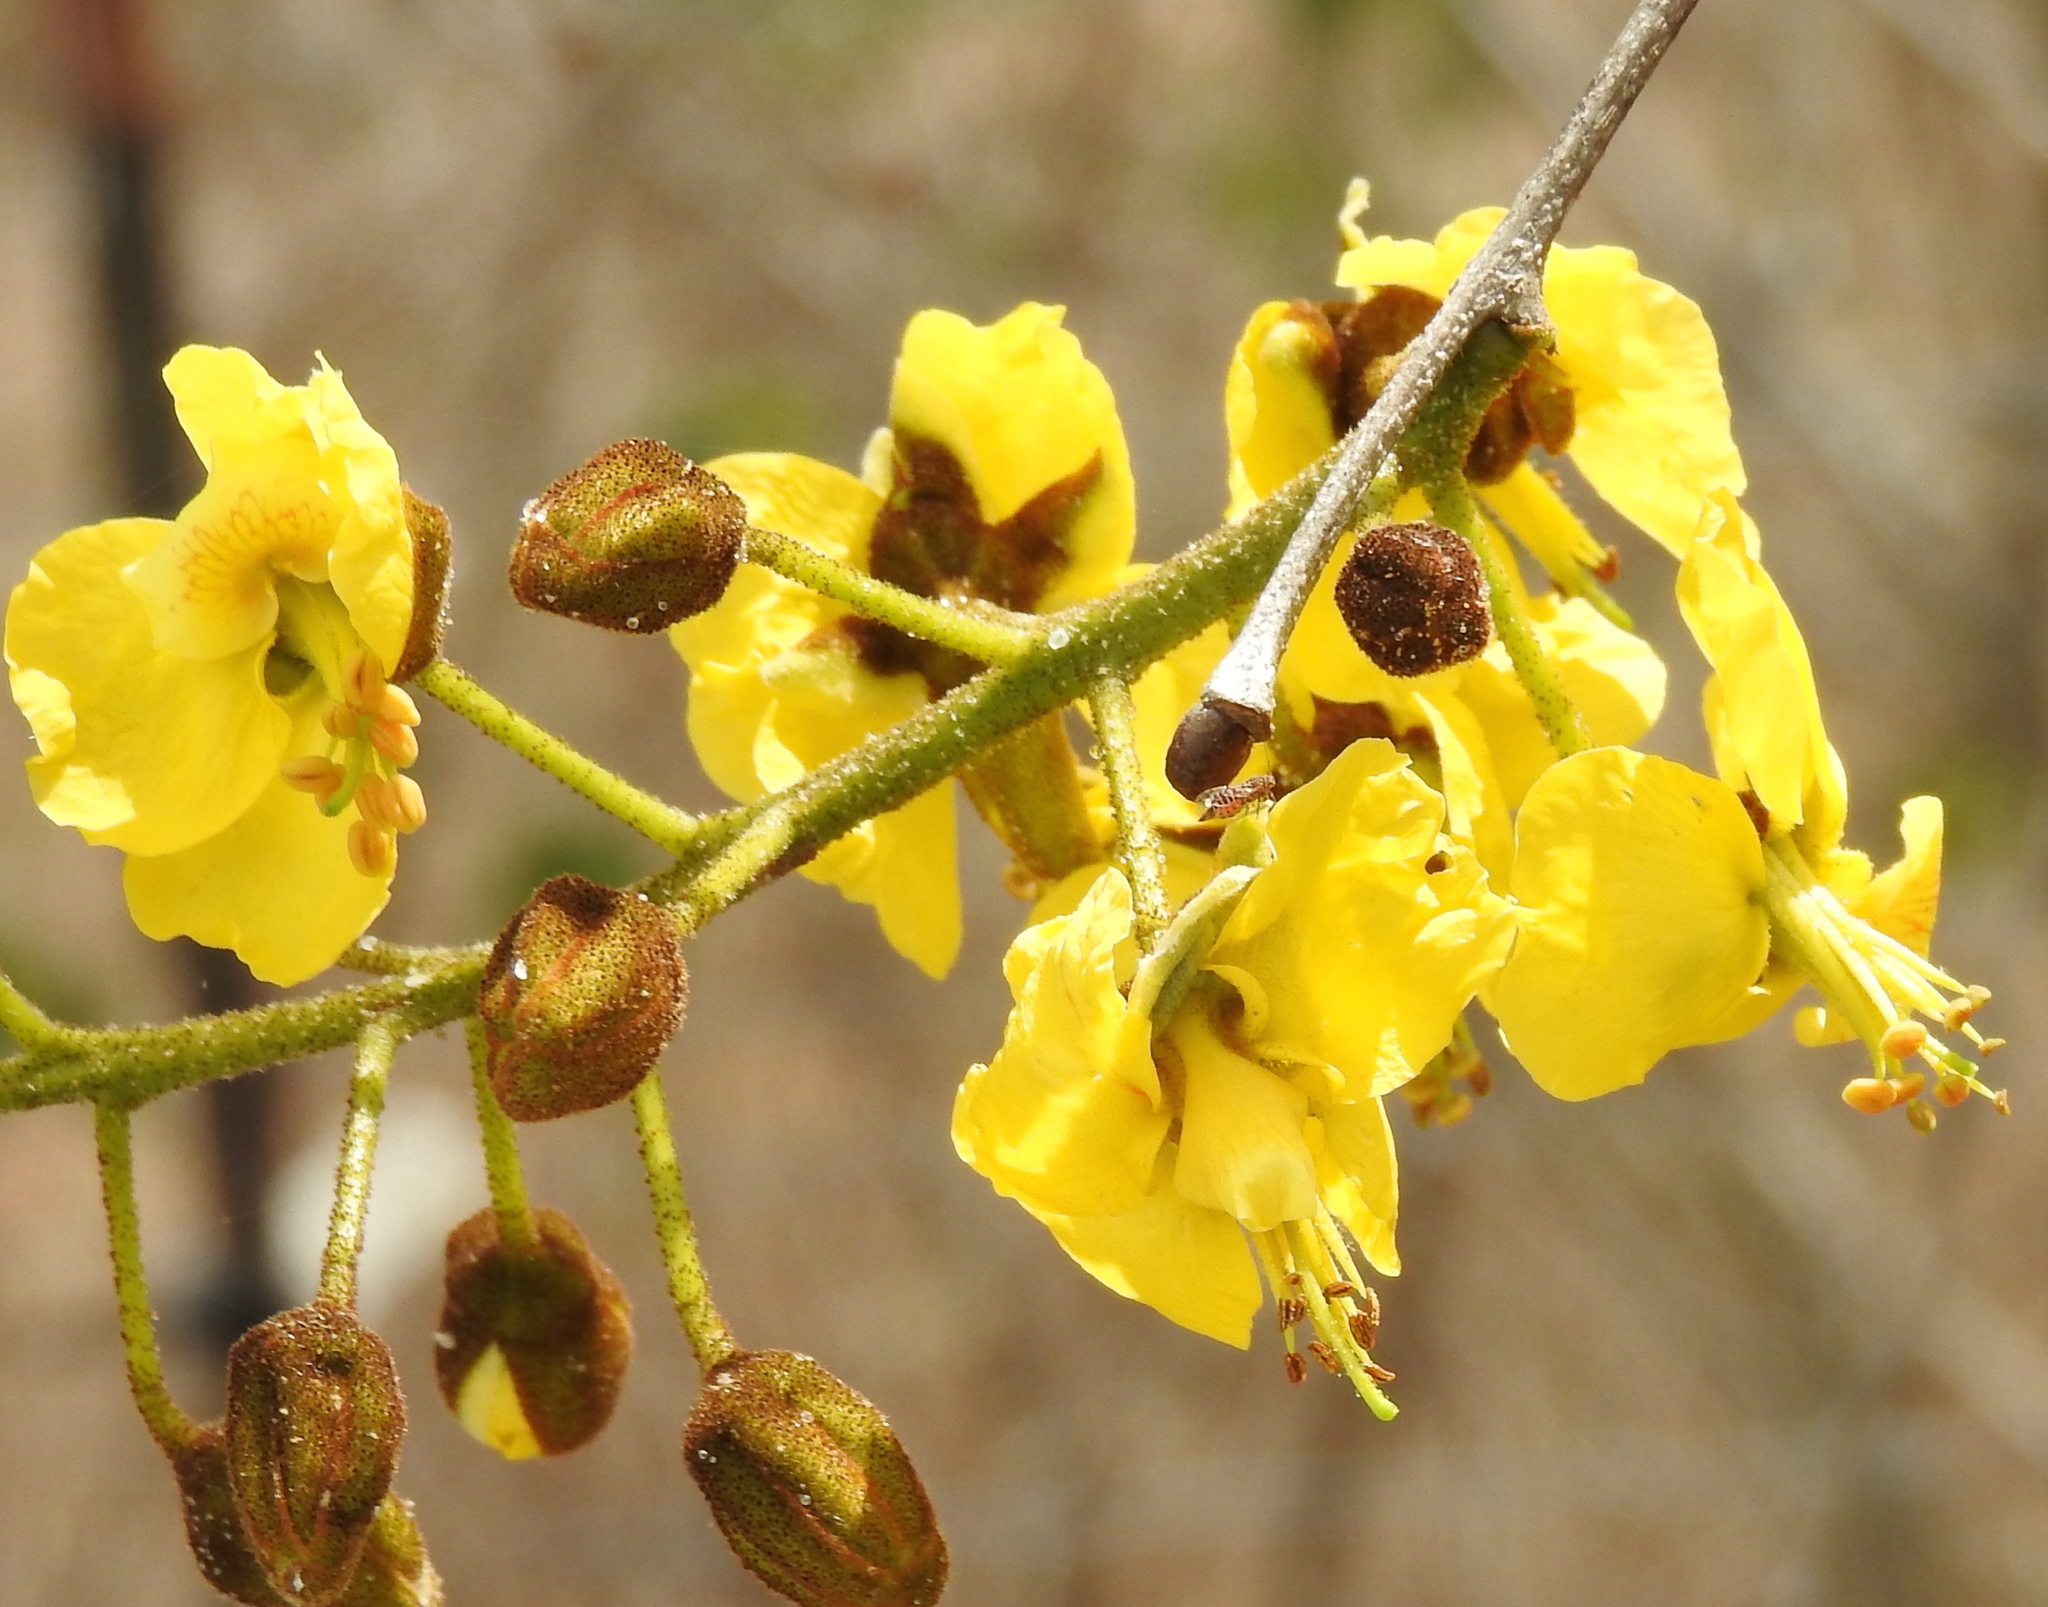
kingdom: Plantae
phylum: Tracheophyta
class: Magnoliopsida
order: Fabales
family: Fabaceae
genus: Cenostigma
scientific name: Cenostigma eriostachys
